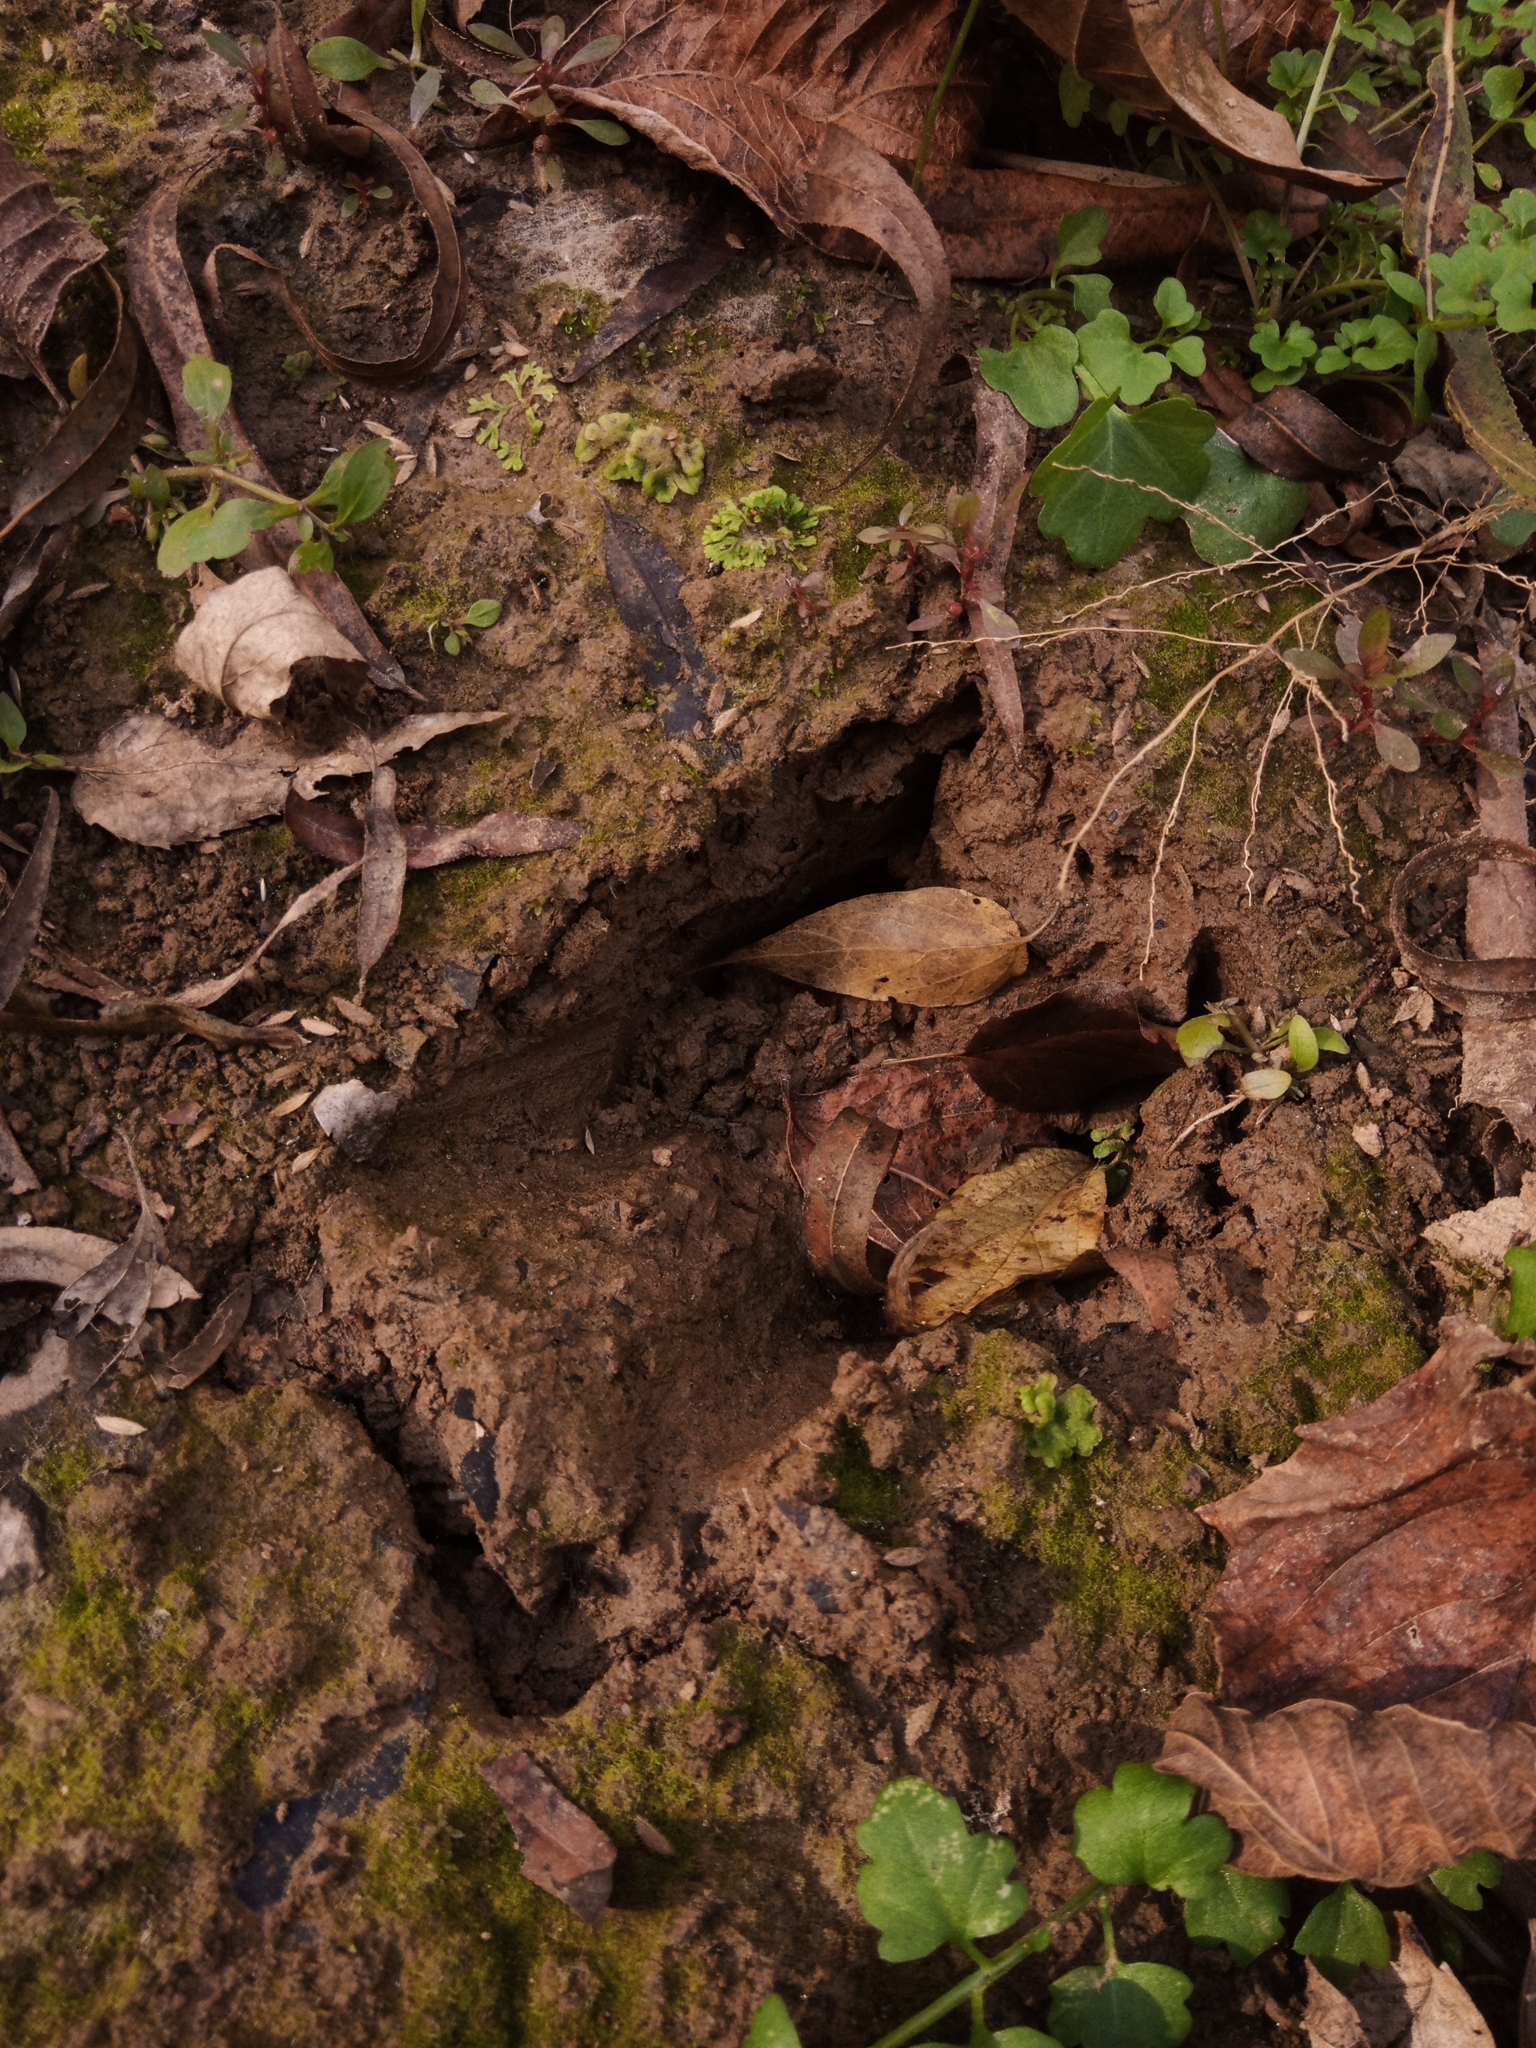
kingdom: Animalia
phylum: Chordata
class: Mammalia
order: Artiodactyla
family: Cervidae
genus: Odocoileus
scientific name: Odocoileus virginianus
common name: White-tailed deer
